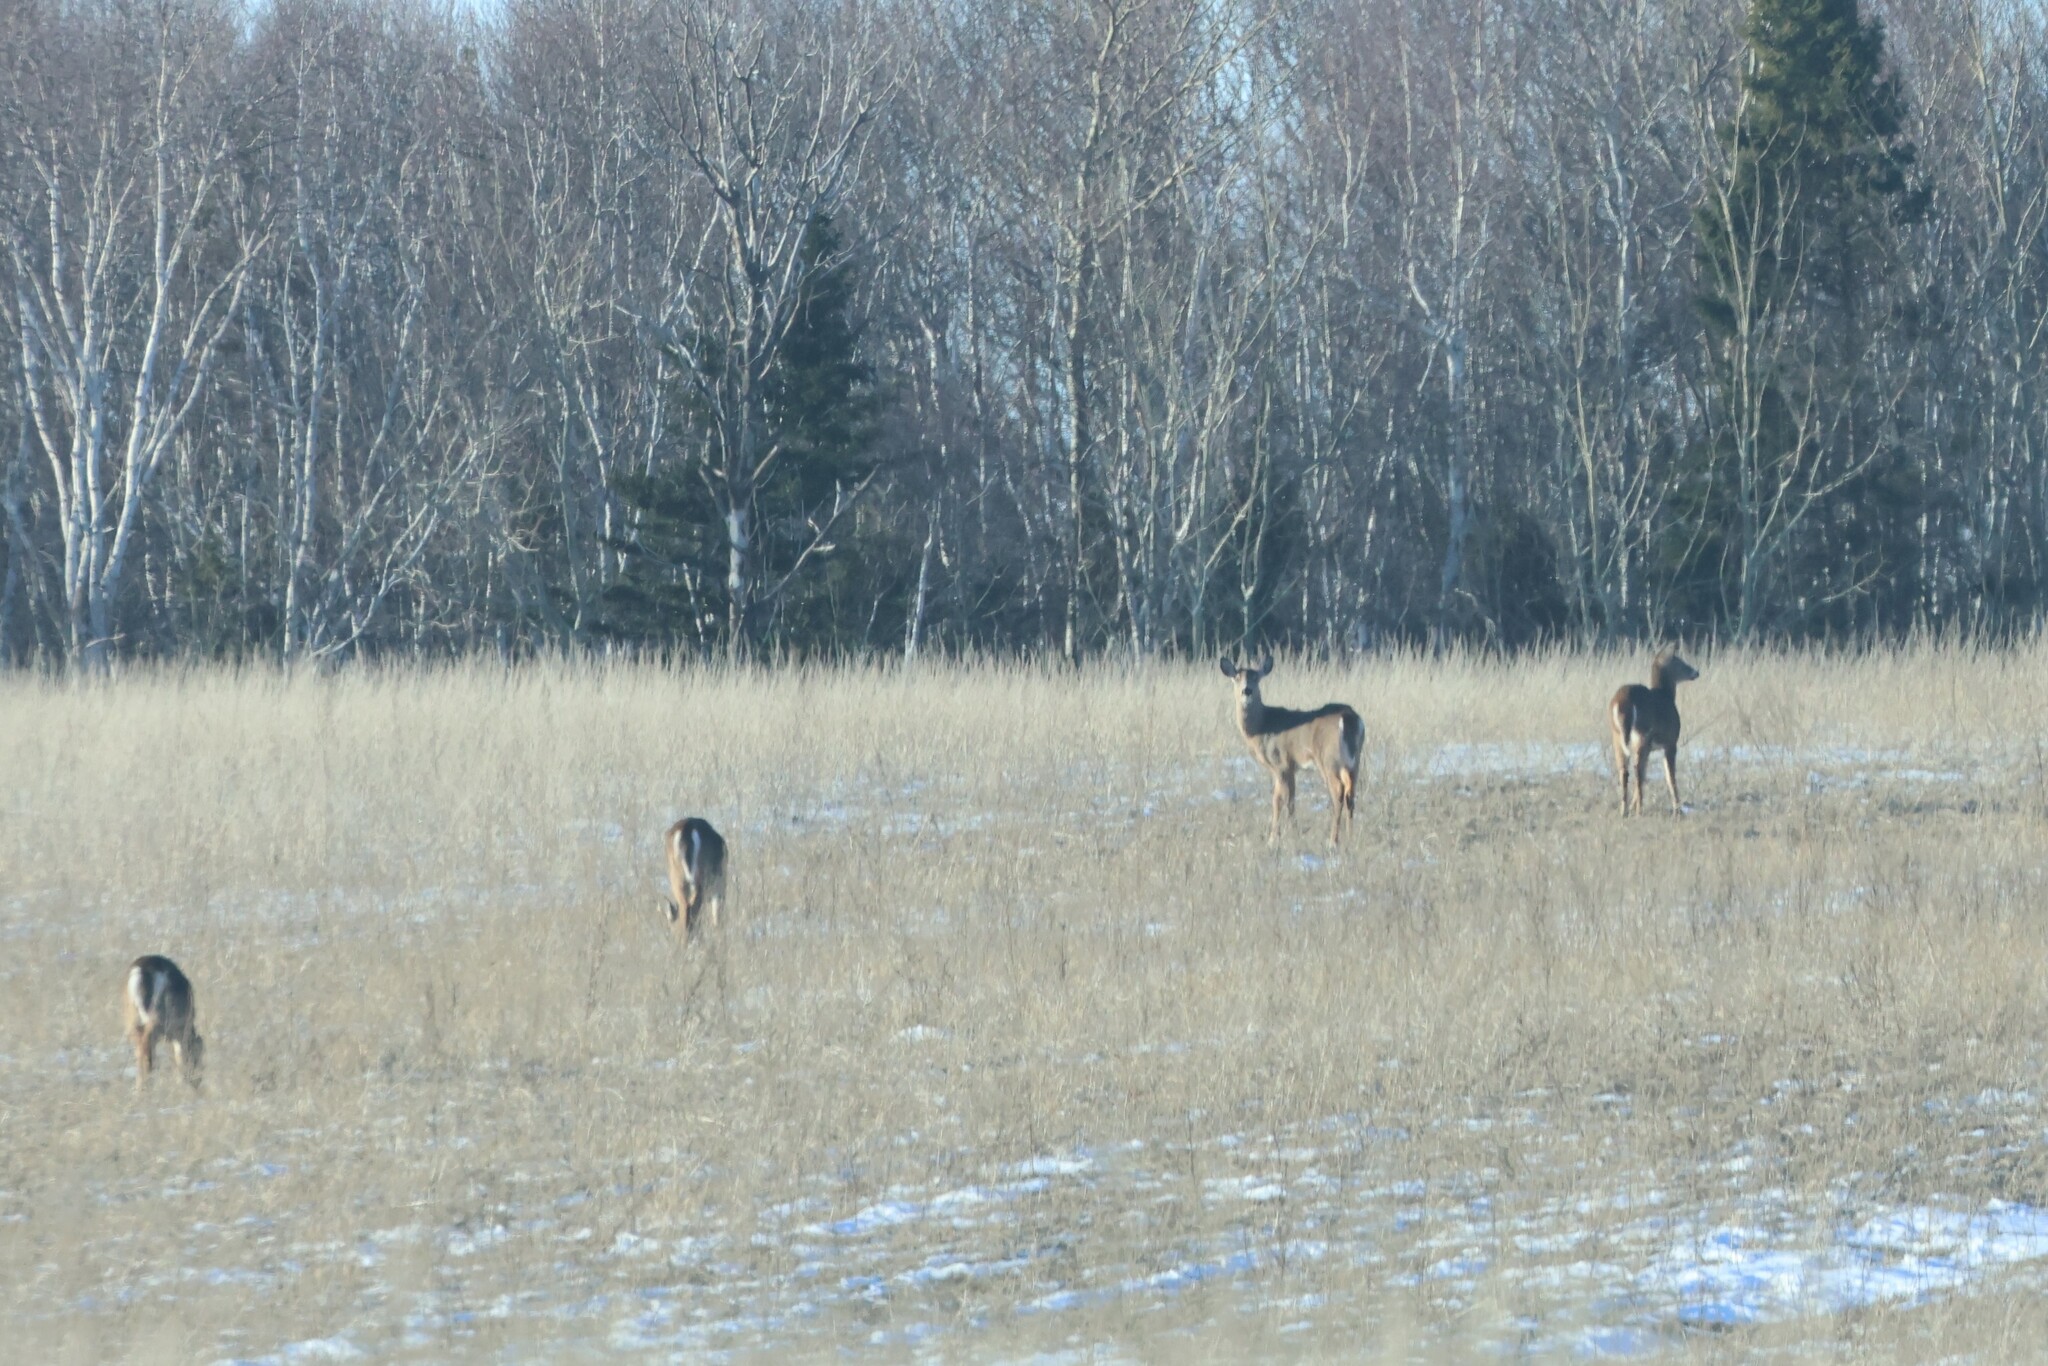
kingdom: Animalia
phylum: Chordata
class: Mammalia
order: Artiodactyla
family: Cervidae
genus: Odocoileus
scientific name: Odocoileus virginianus
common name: White-tailed deer
